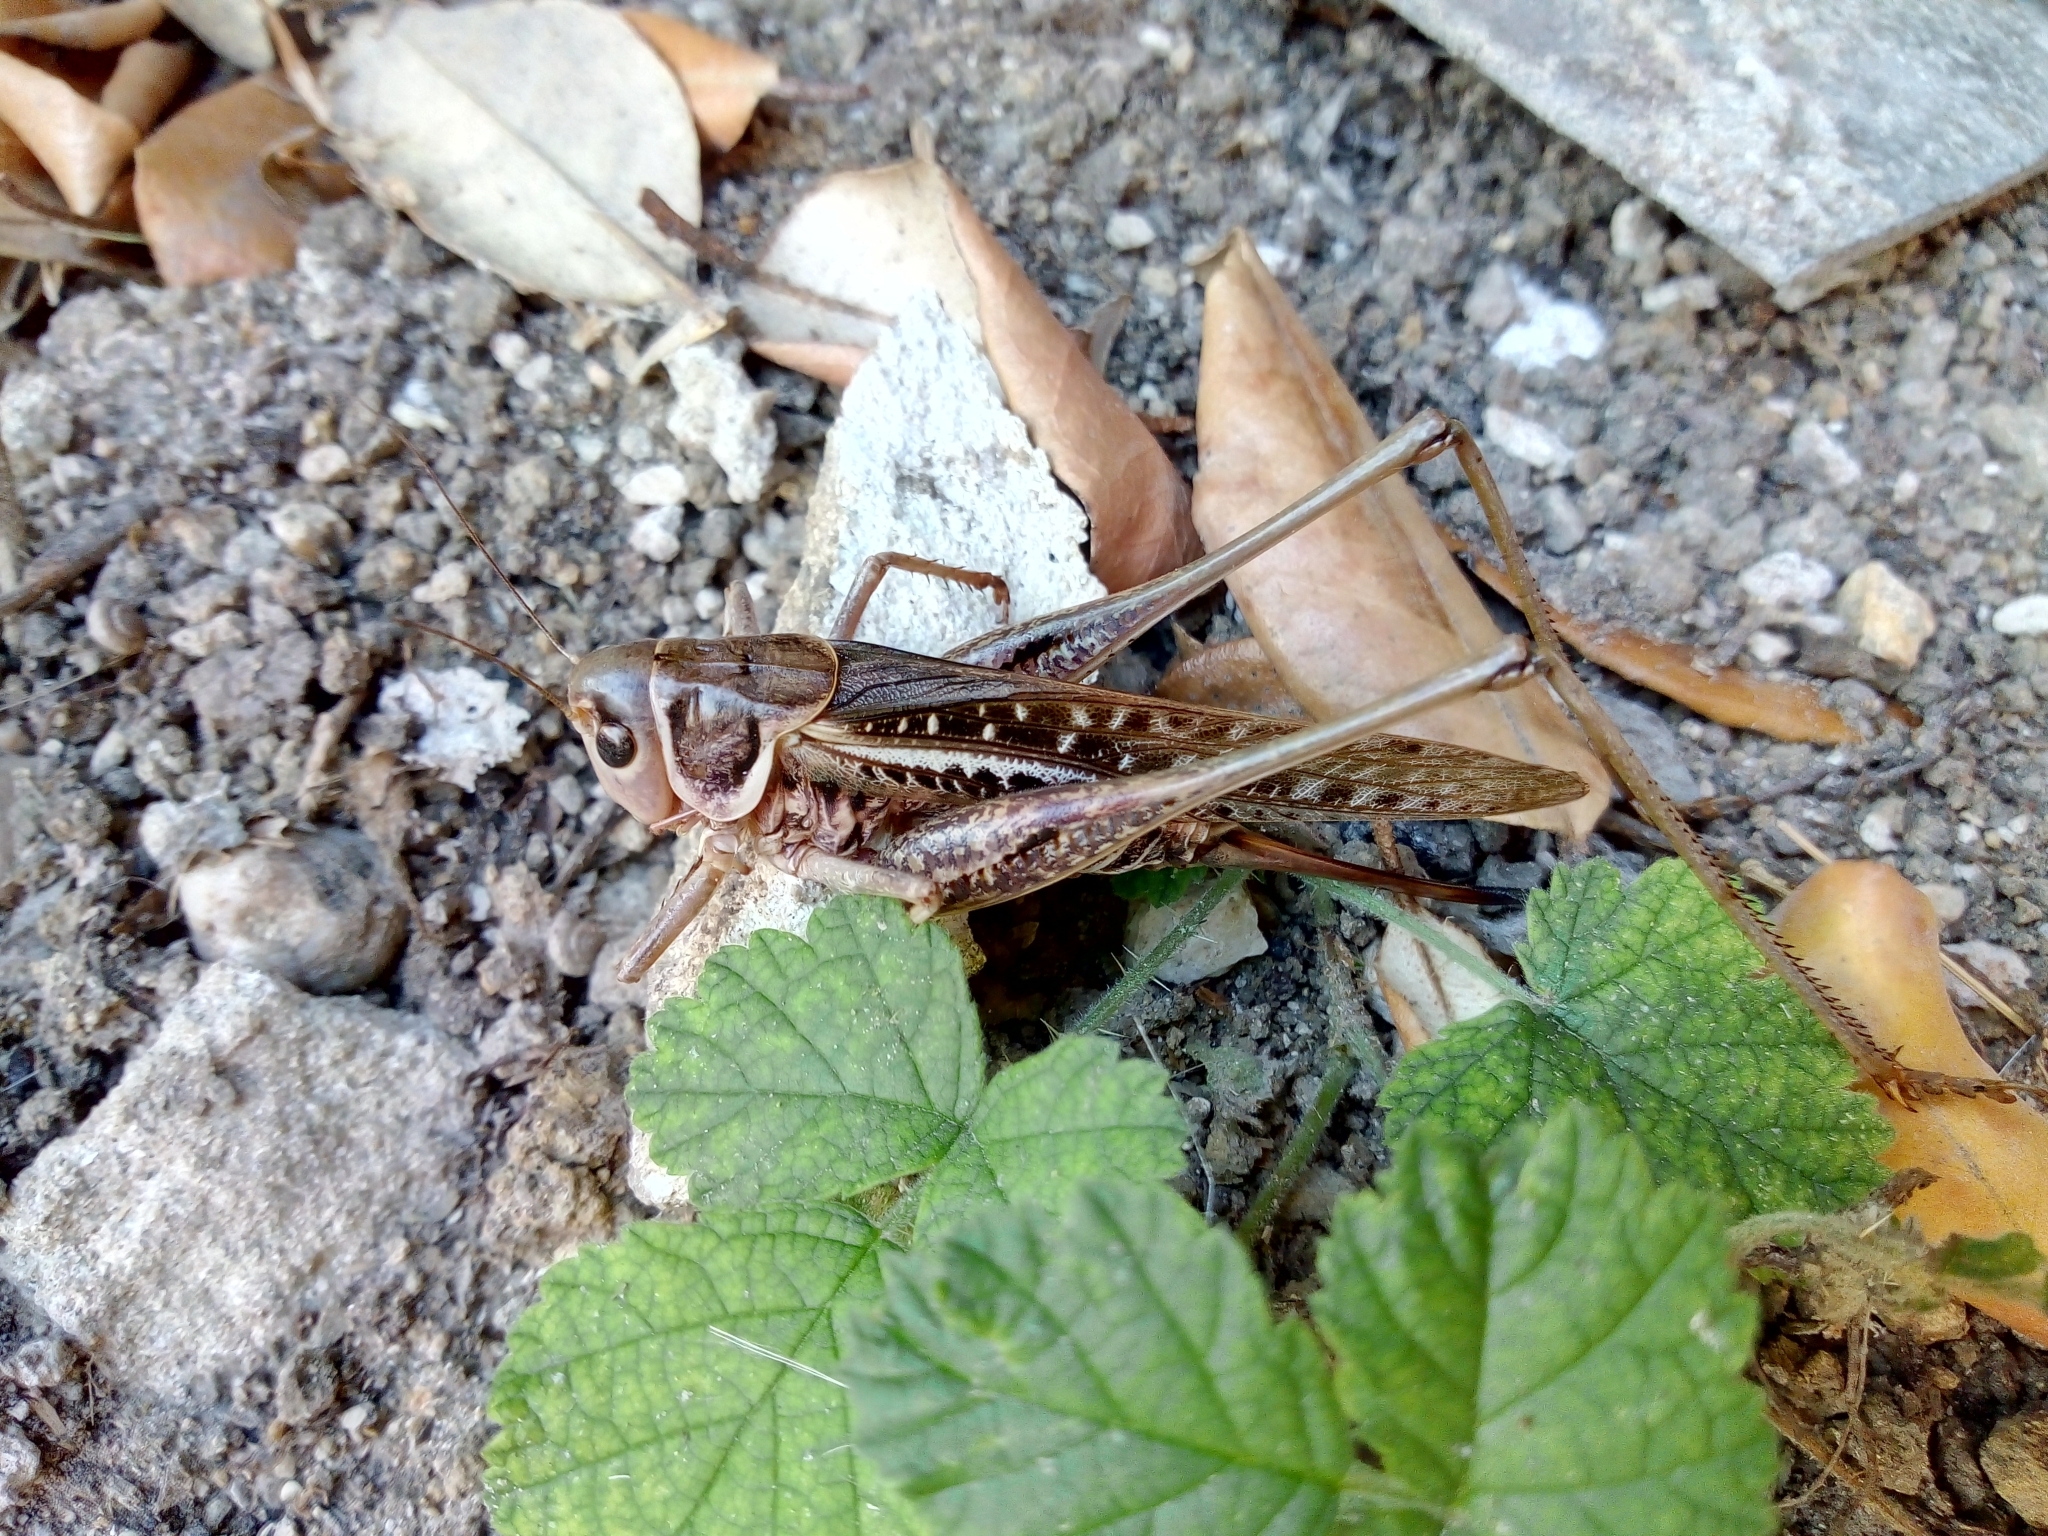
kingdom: Animalia
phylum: Arthropoda
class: Insecta
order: Orthoptera
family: Tettigoniidae
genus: Decticus
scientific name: Decticus albifrons
